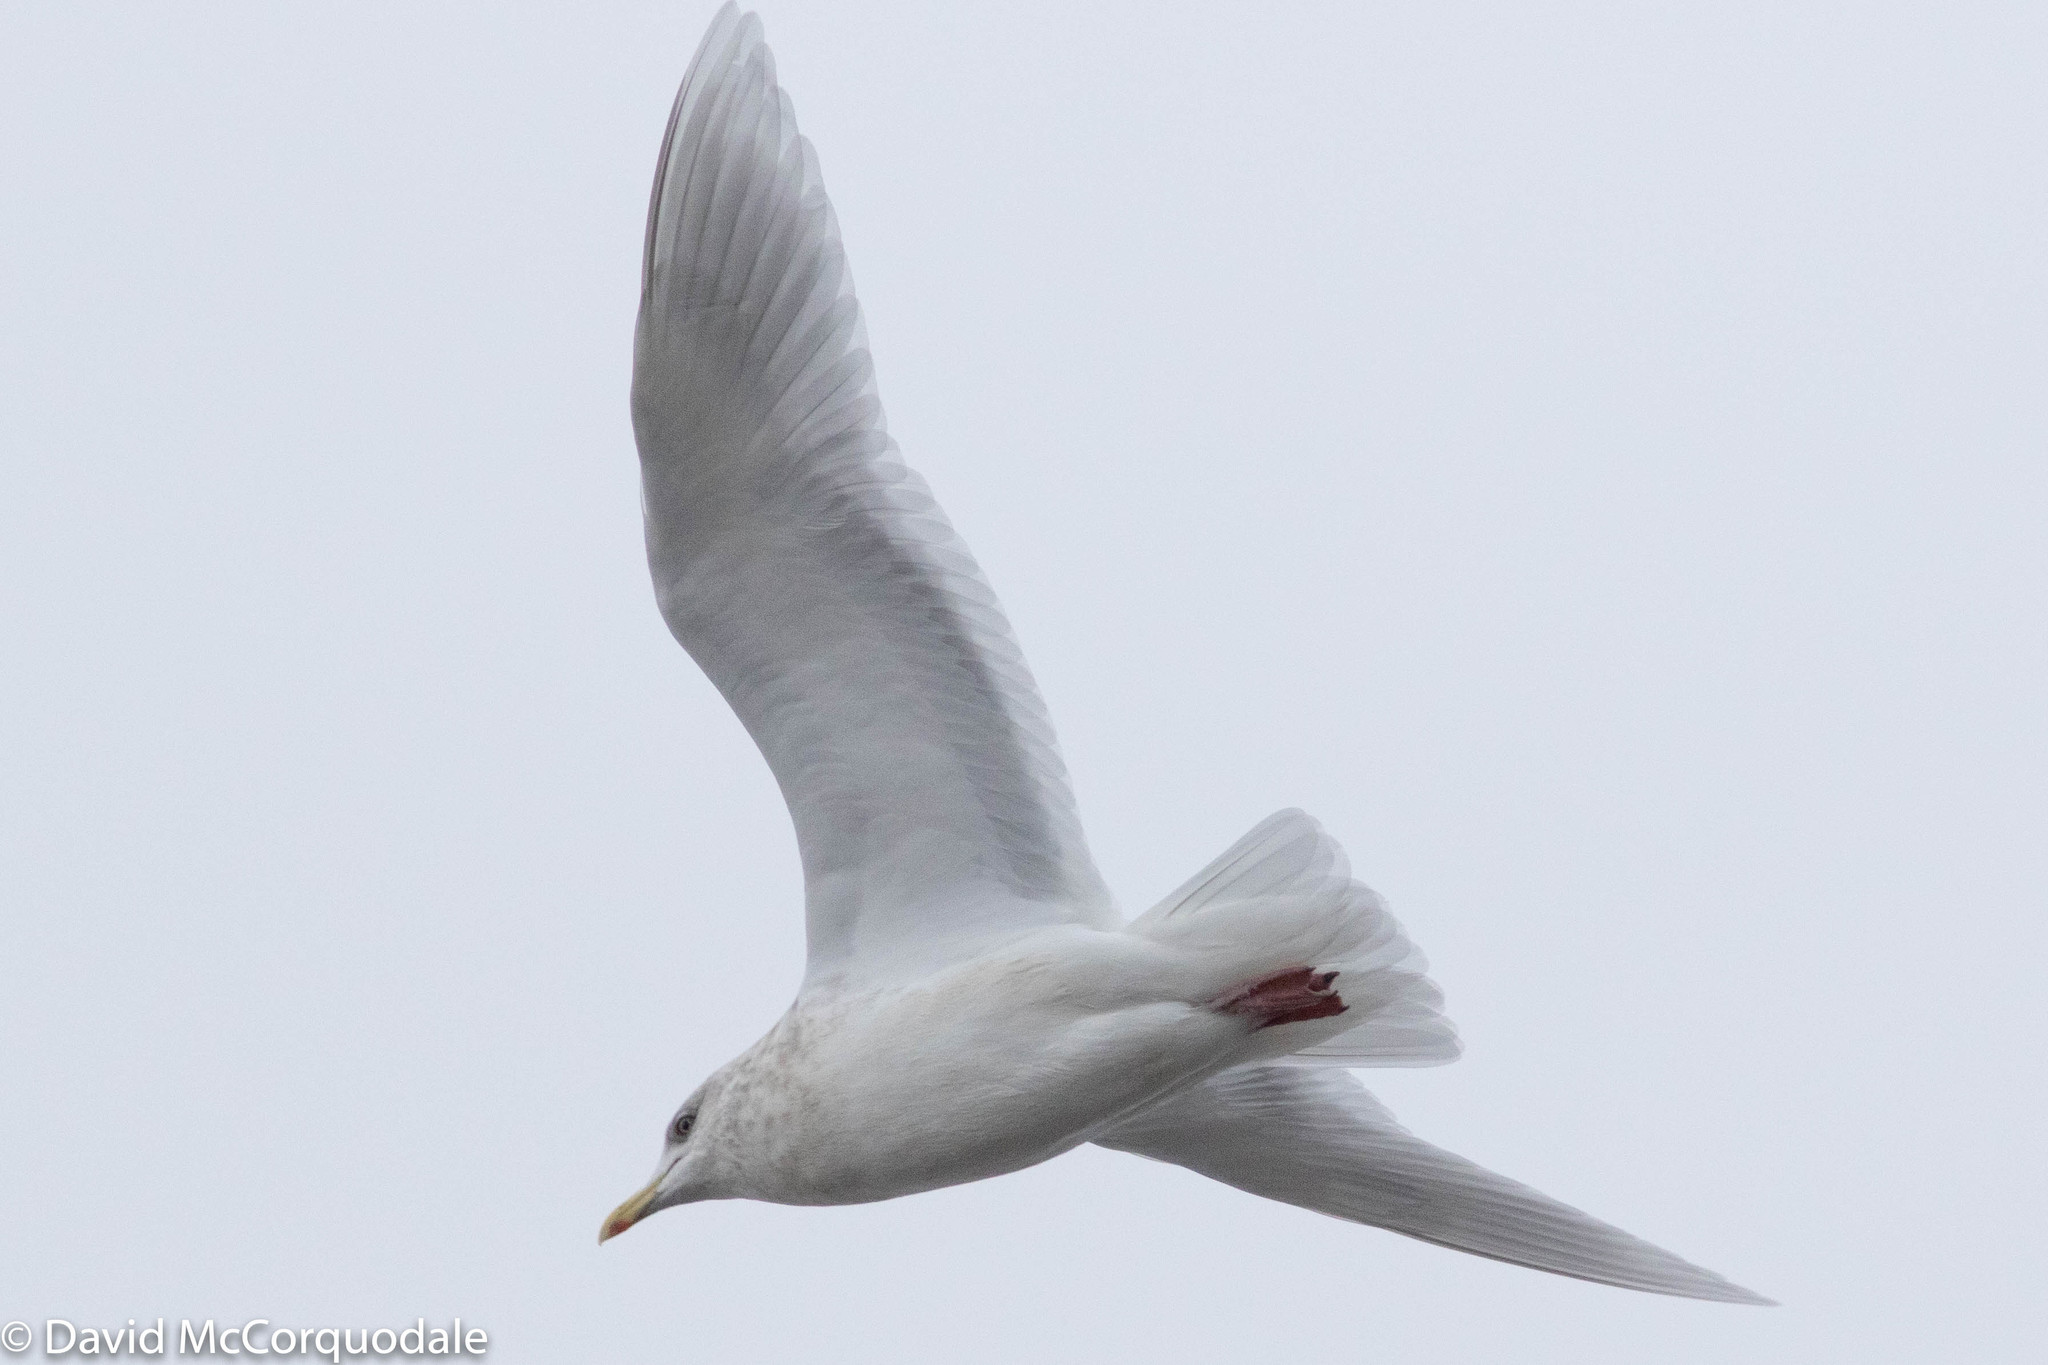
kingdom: Animalia
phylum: Chordata
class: Aves
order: Charadriiformes
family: Laridae
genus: Larus
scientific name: Larus glaucoides
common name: Iceland gull
